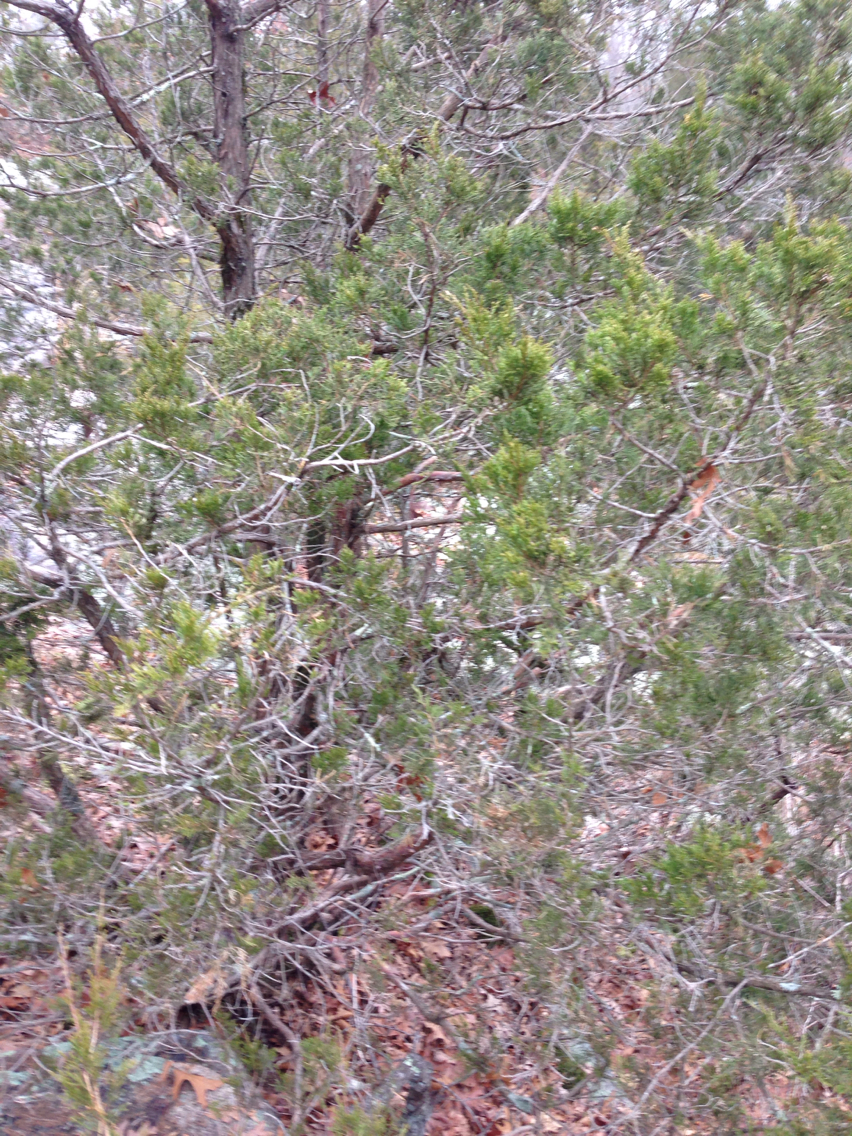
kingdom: Plantae
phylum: Tracheophyta
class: Pinopsida
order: Pinales
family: Cupressaceae
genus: Juniperus
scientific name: Juniperus virginiana
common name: Red juniper
